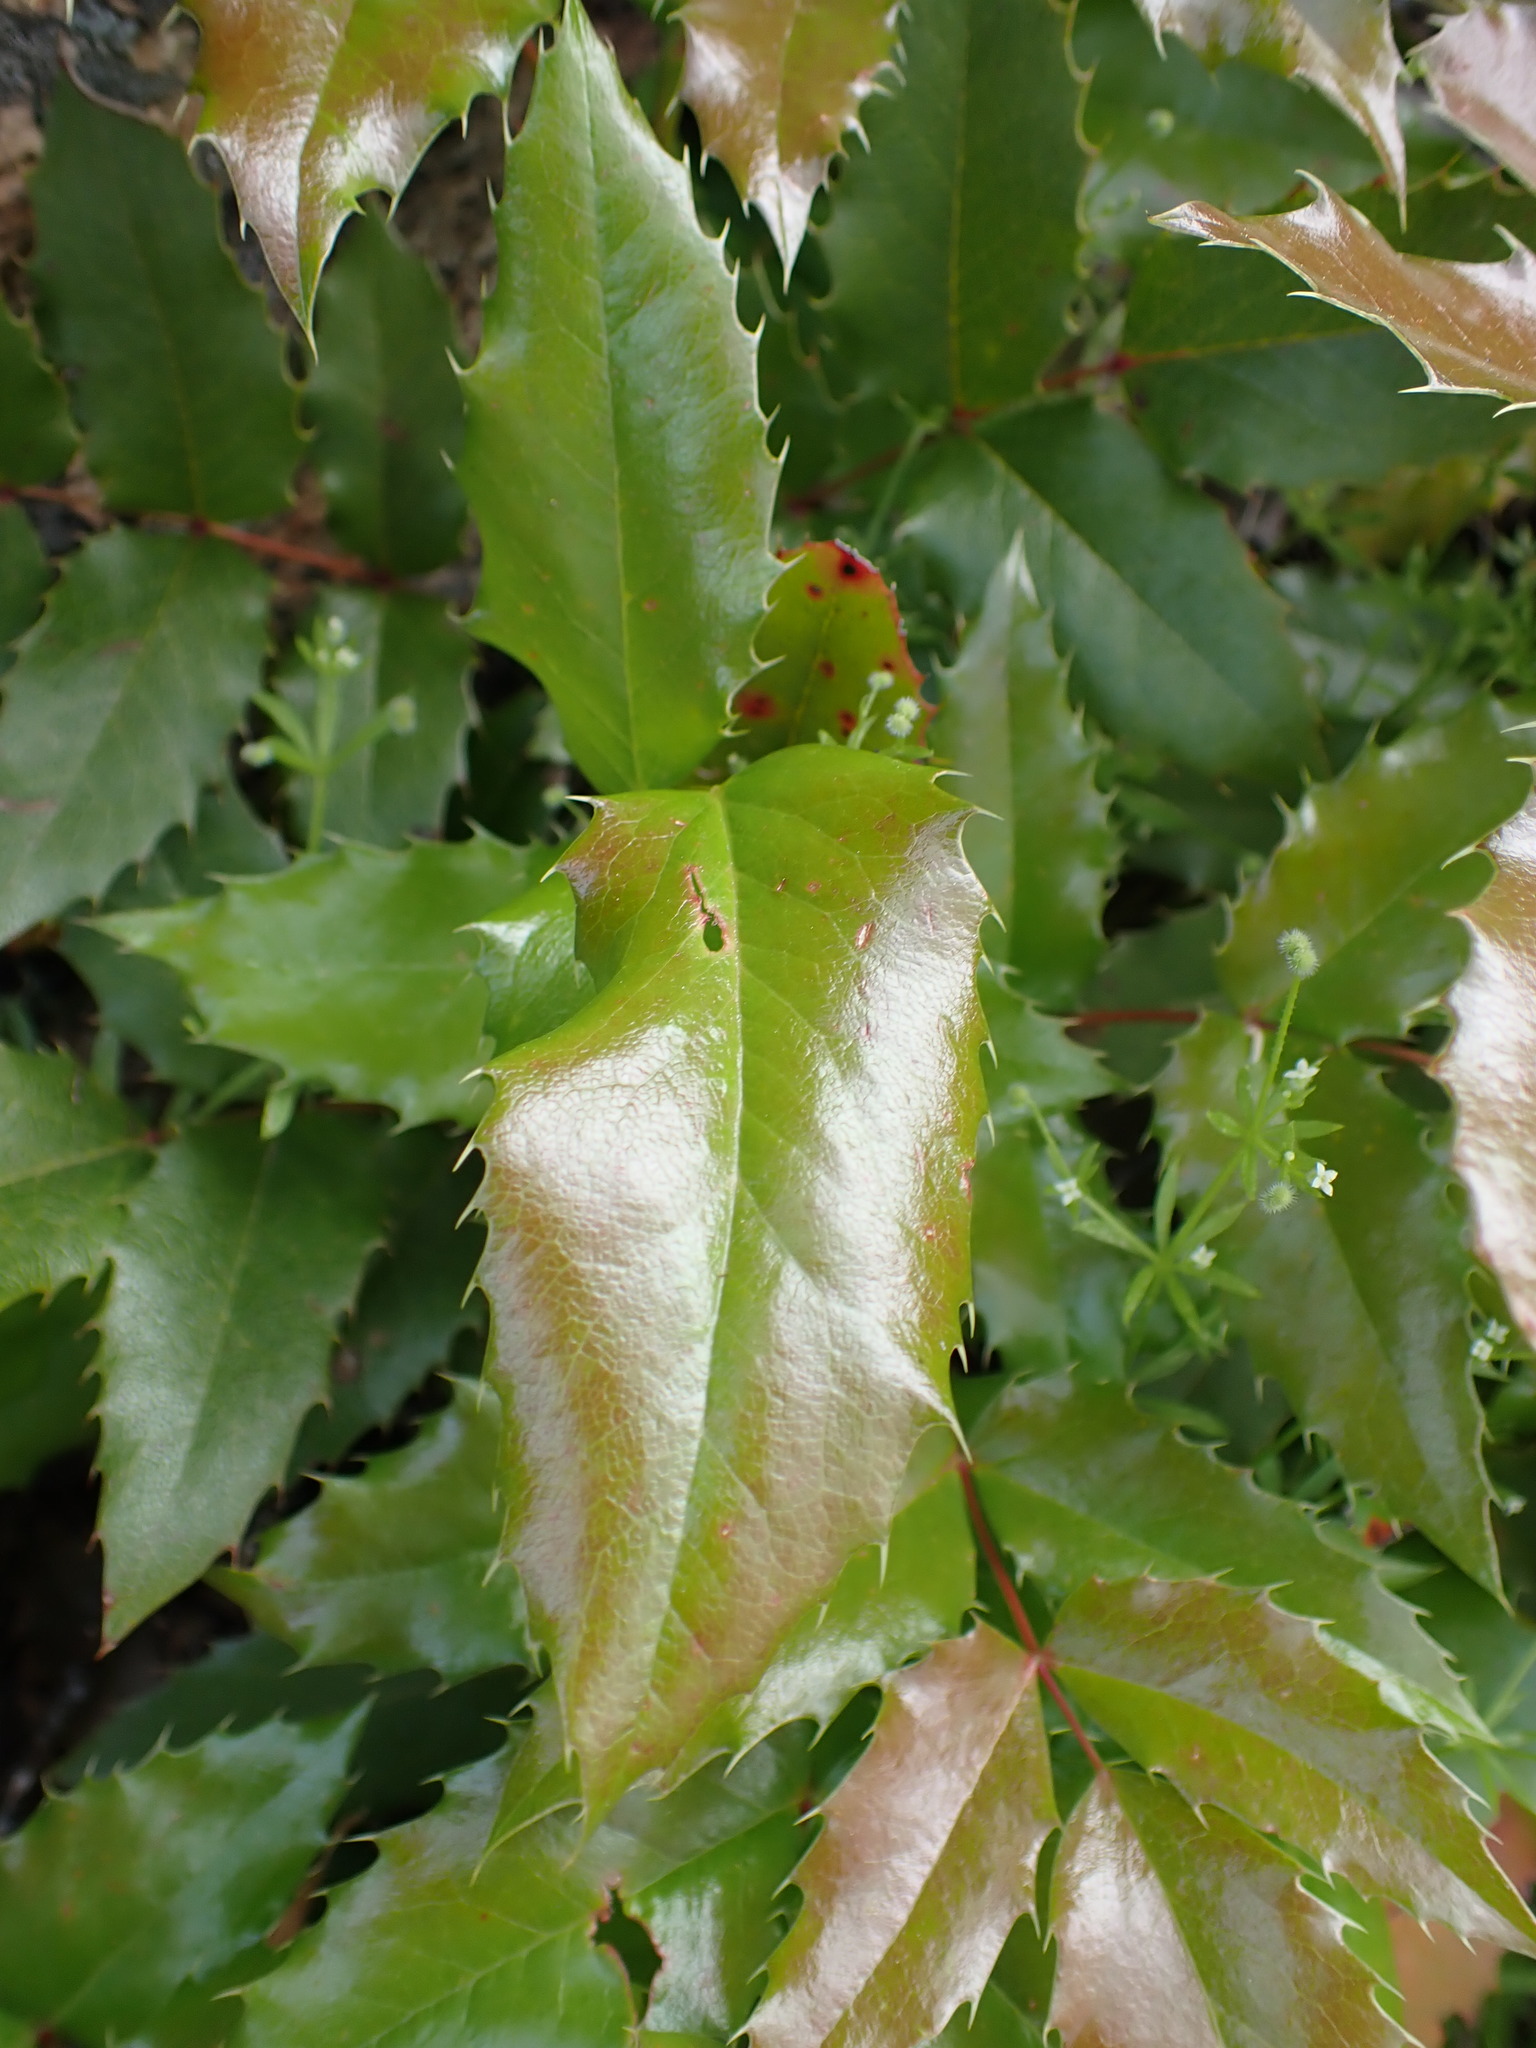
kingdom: Plantae
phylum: Tracheophyta
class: Magnoliopsida
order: Ranunculales
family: Berberidaceae
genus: Mahonia
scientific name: Mahonia aquifolium
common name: Oregon-grape
